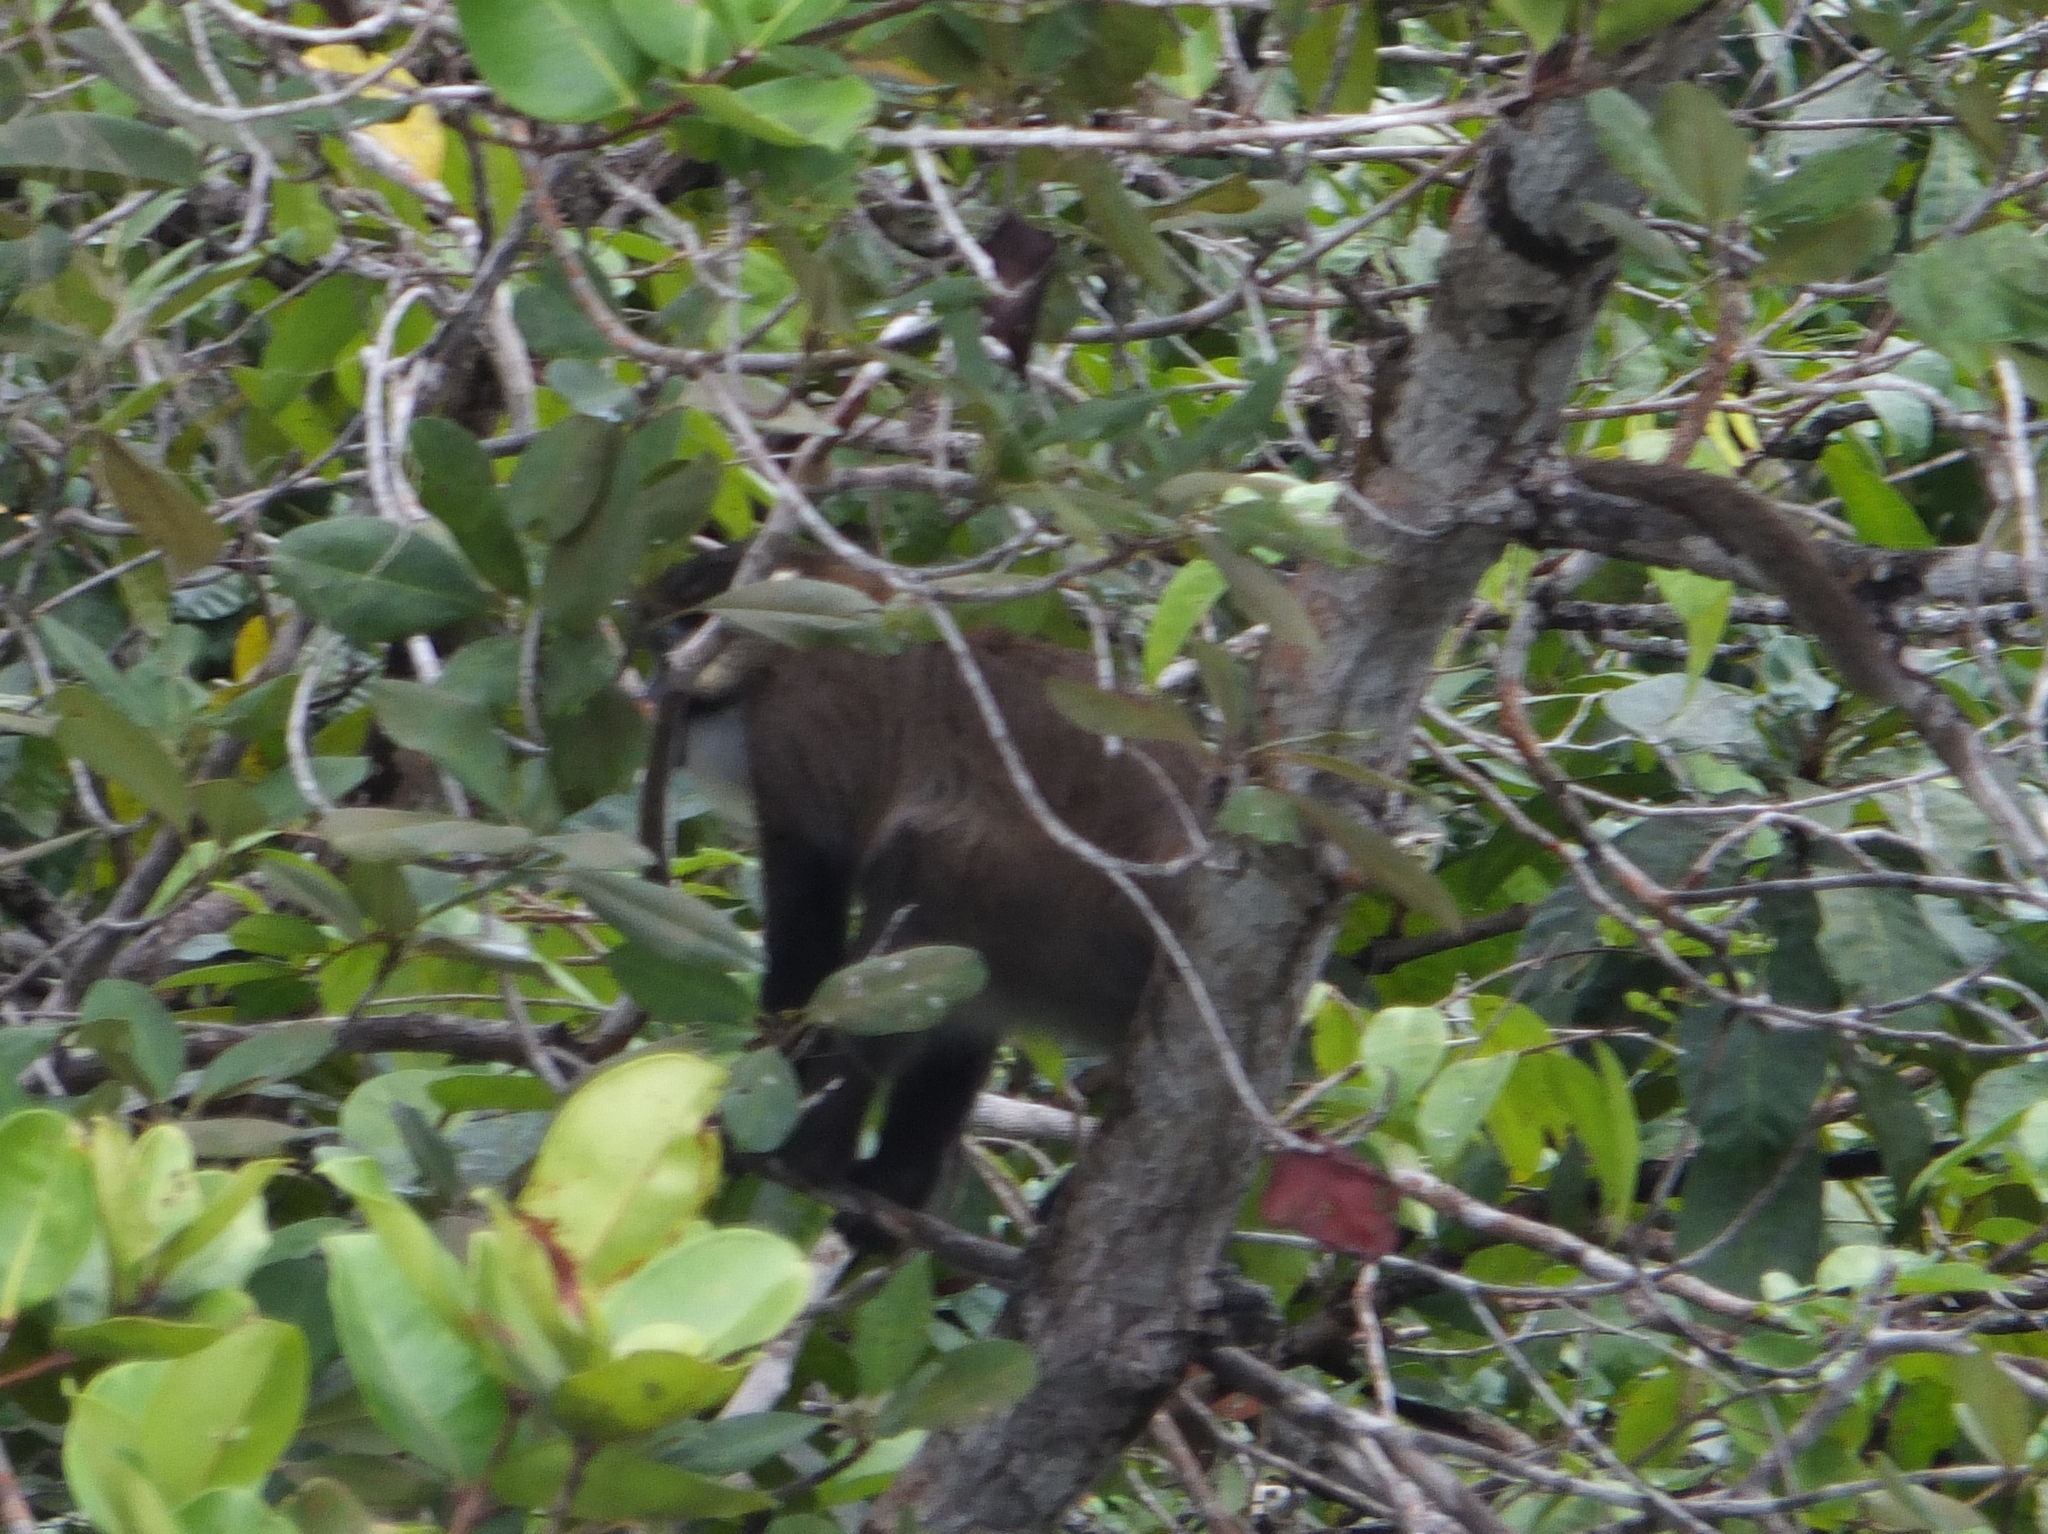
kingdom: Animalia
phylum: Chordata
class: Mammalia
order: Primates
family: Cercopithecidae
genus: Cercopithecus
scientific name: Cercopithecus cephus
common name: Moustached guenon
